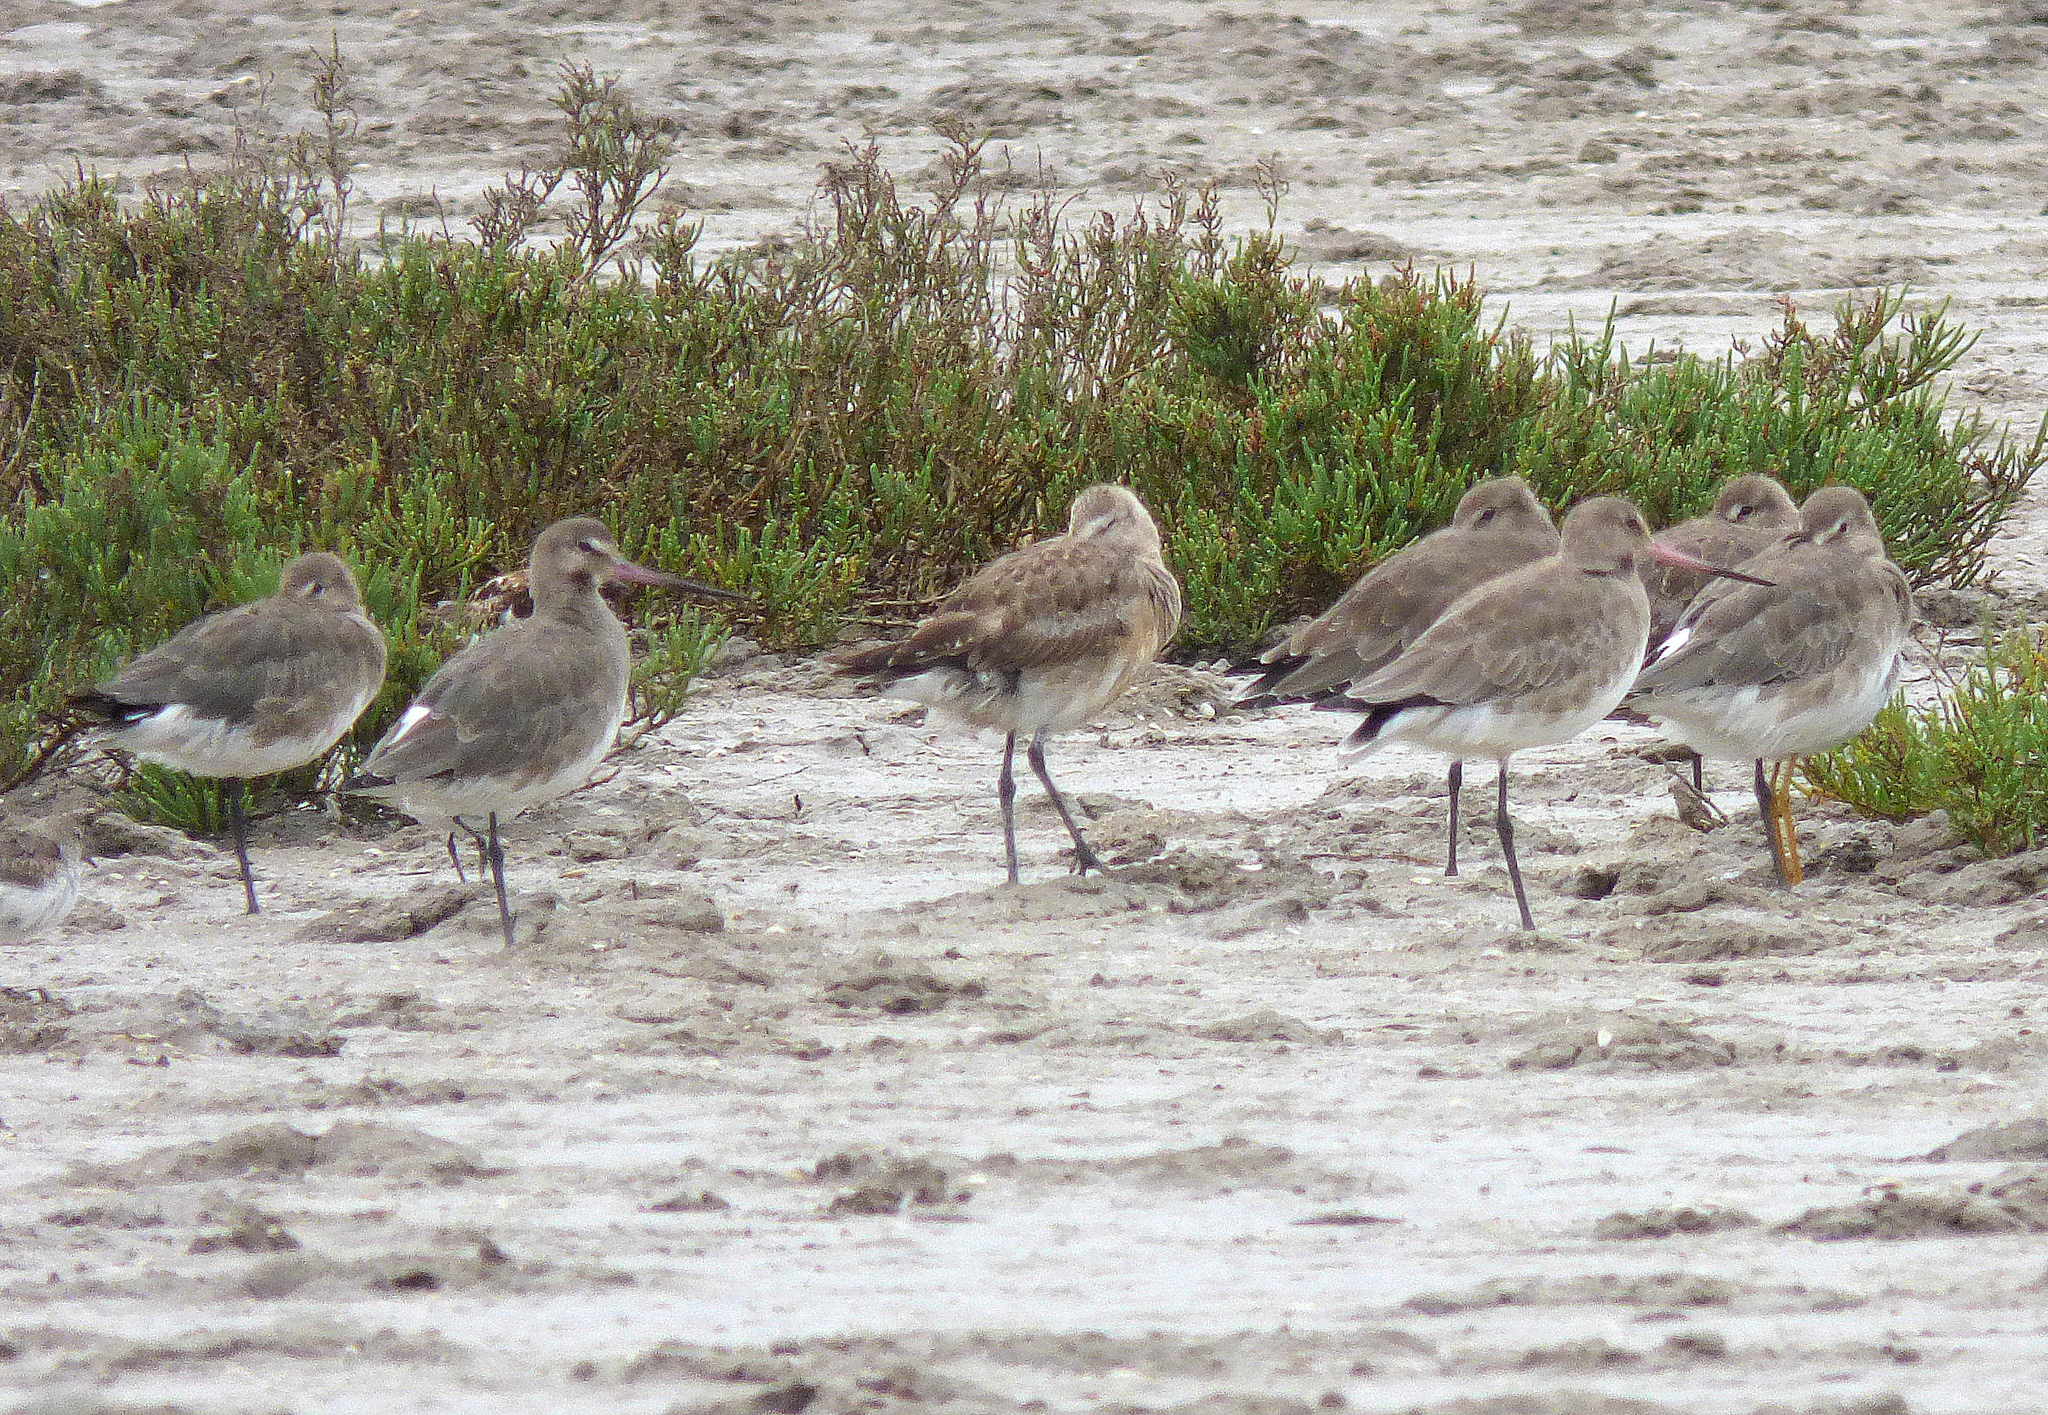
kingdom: Animalia
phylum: Chordata
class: Aves
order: Charadriiformes
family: Scolopacidae
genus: Limosa
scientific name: Limosa haemastica
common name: Hudsonian godwit
